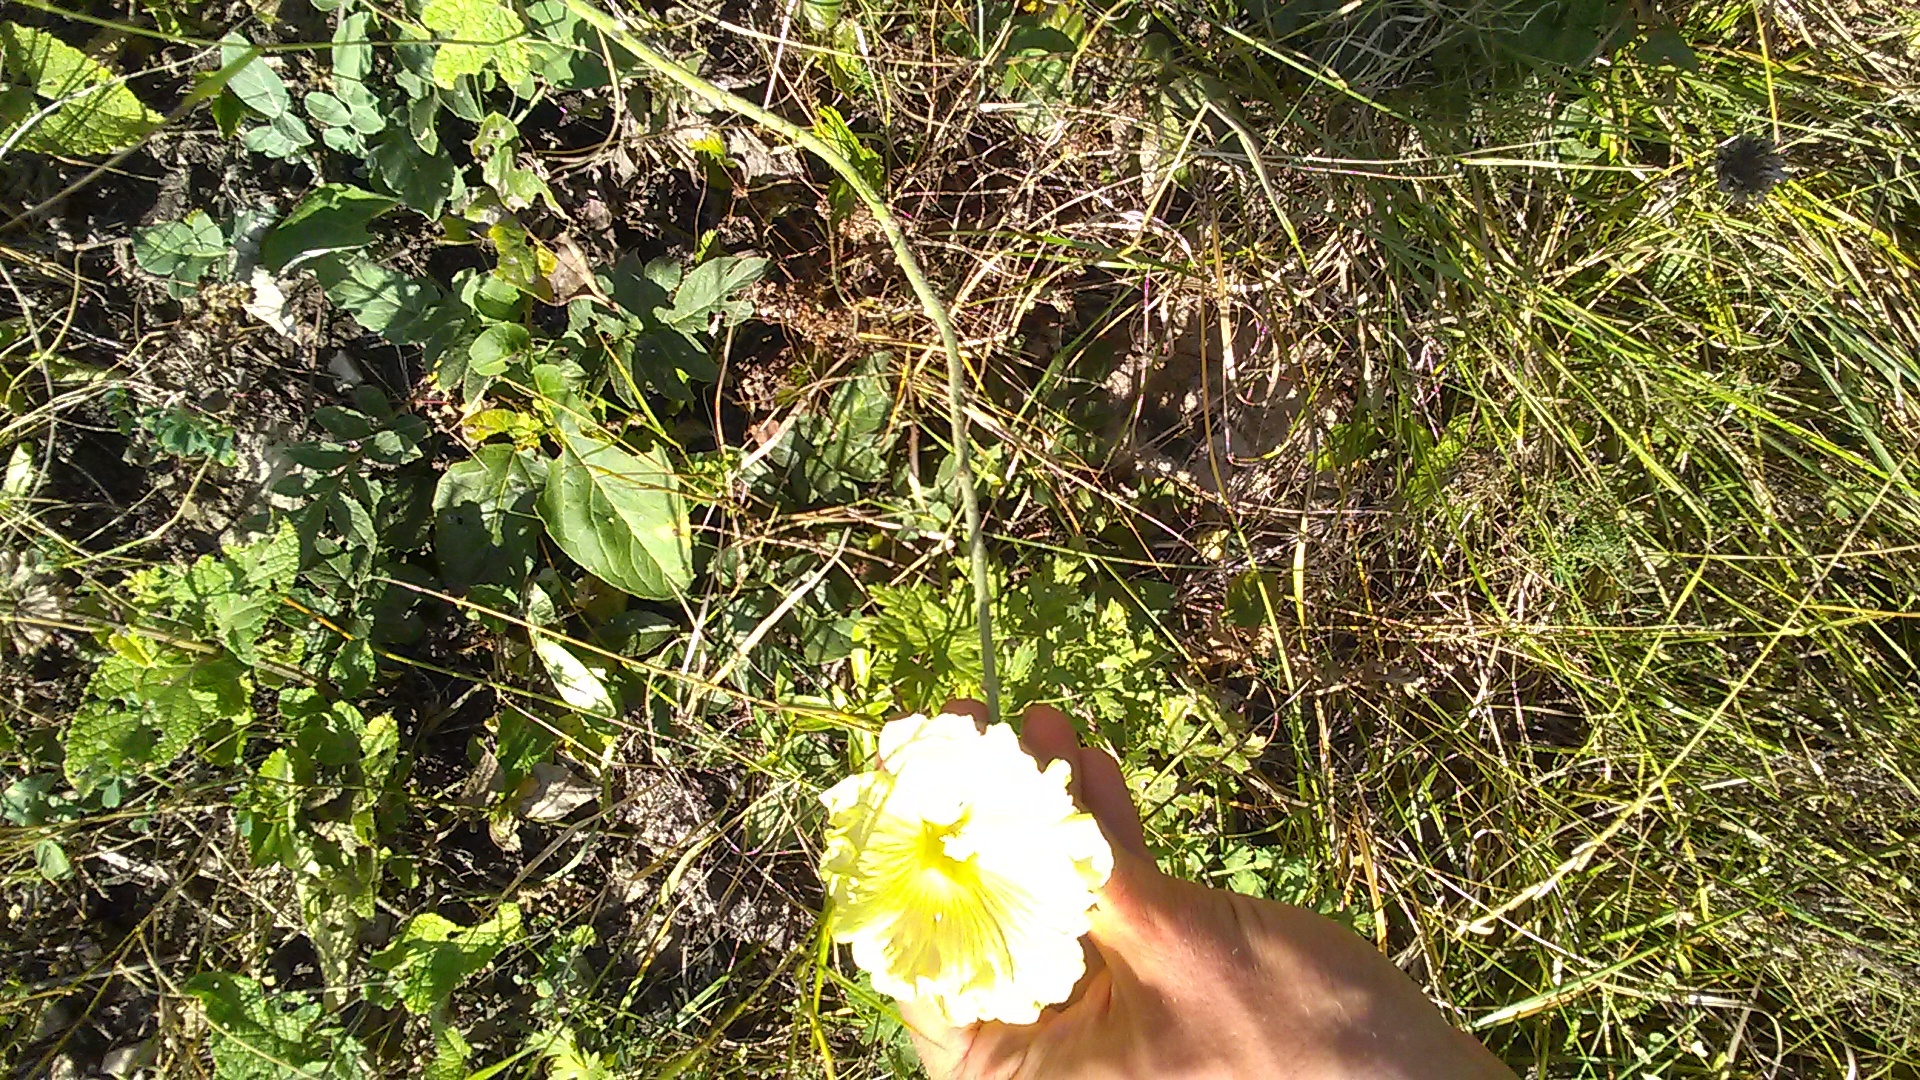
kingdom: Plantae
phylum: Tracheophyta
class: Magnoliopsida
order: Malvales
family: Malvaceae
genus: Alcea
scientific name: Alcea rugosa
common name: Russian hollyhock
